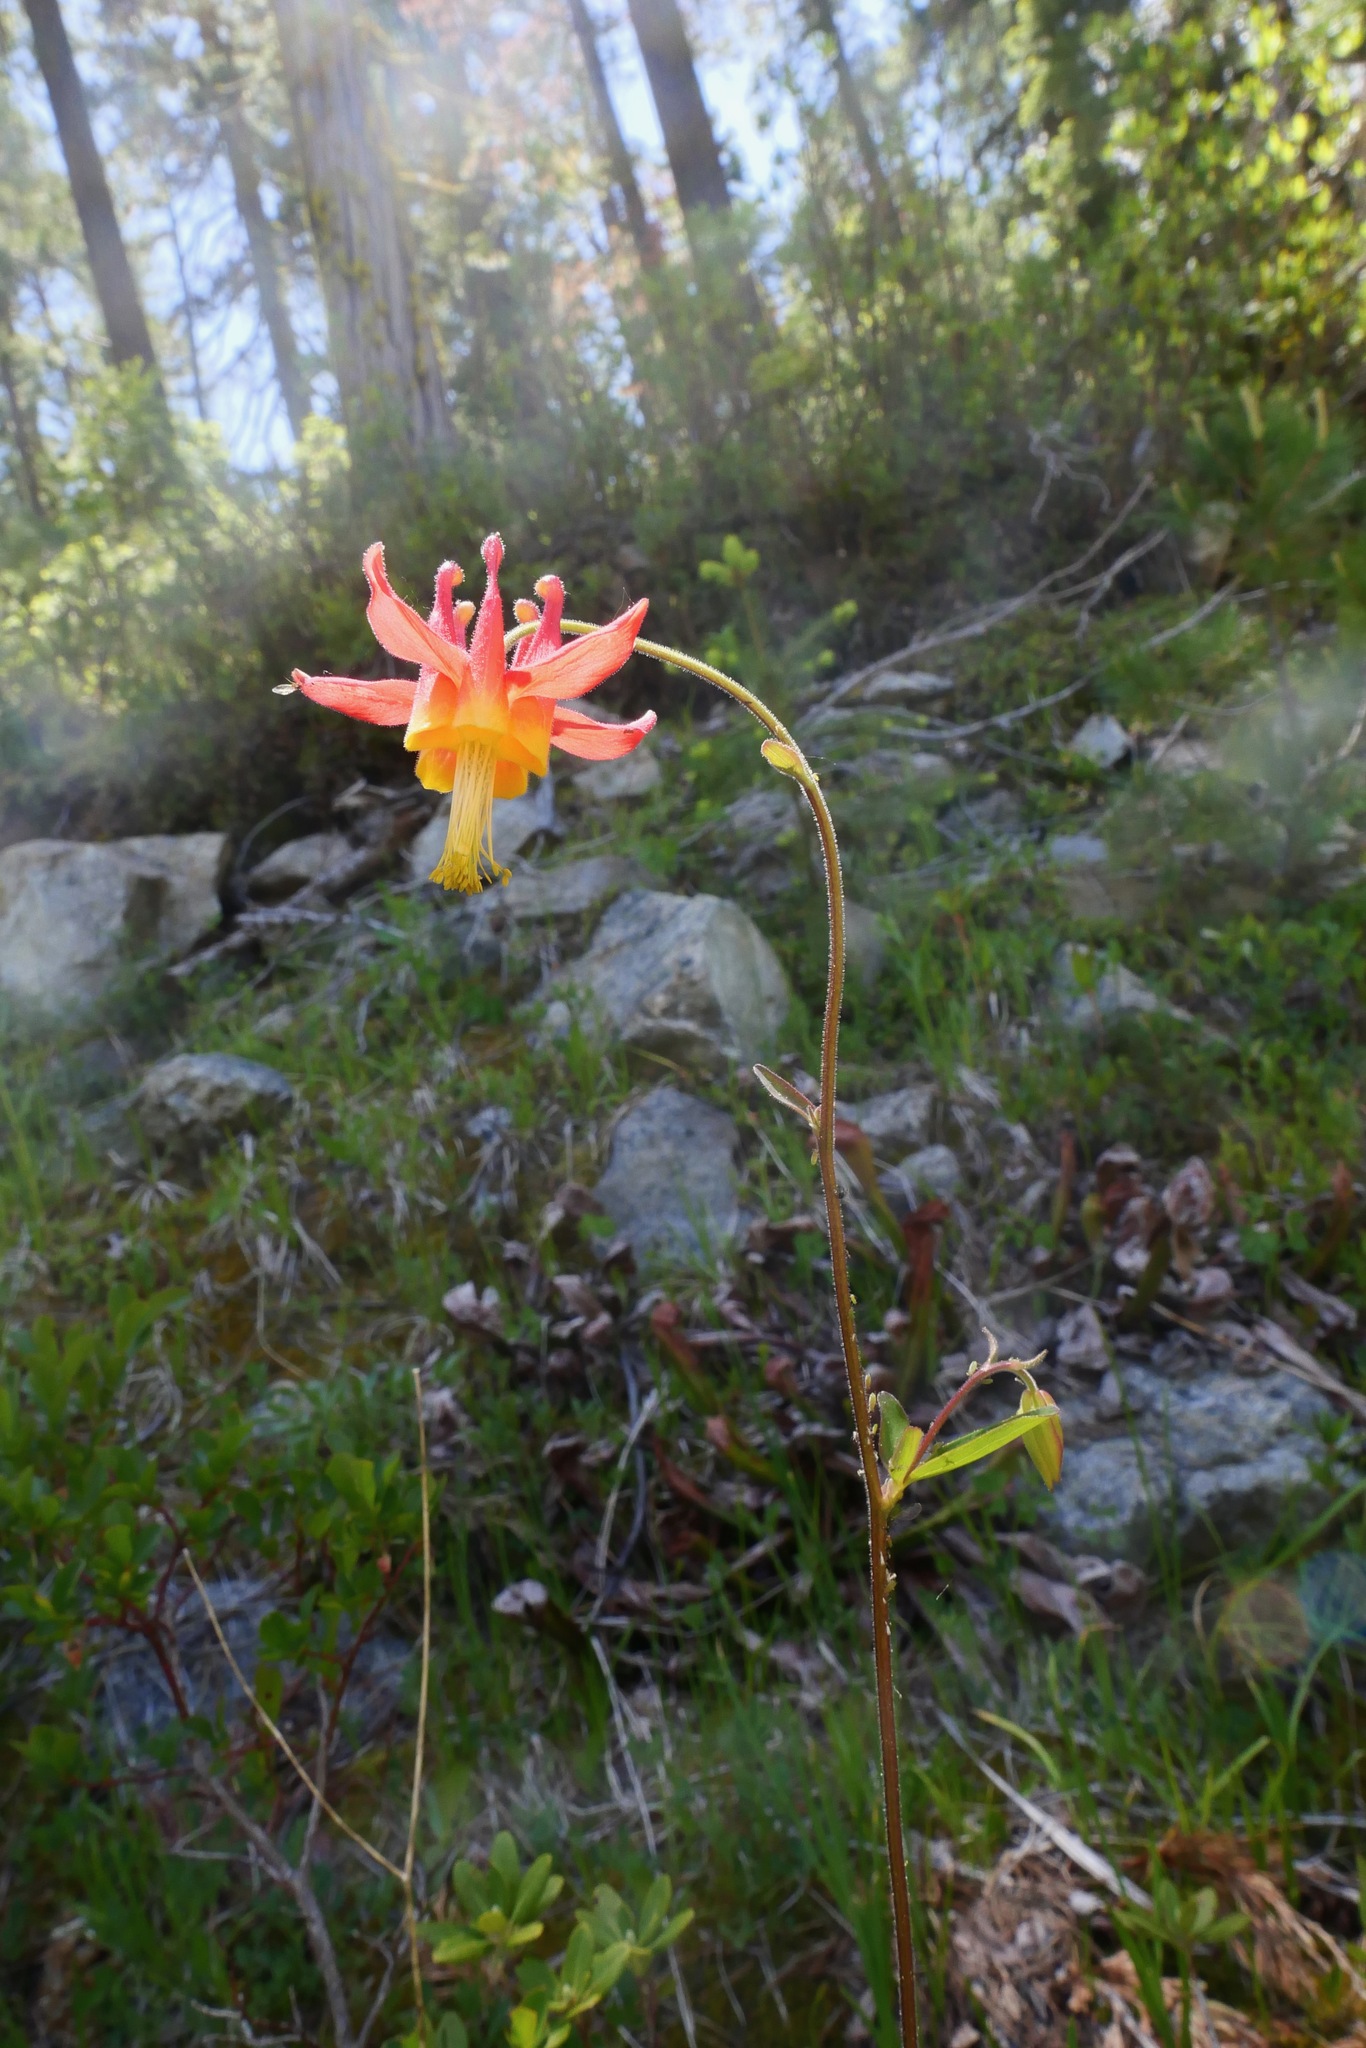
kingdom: Plantae
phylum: Tracheophyta
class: Magnoliopsida
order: Ranunculales
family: Ranunculaceae
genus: Aquilegia
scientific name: Aquilegia formosa
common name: Sitka columbine
